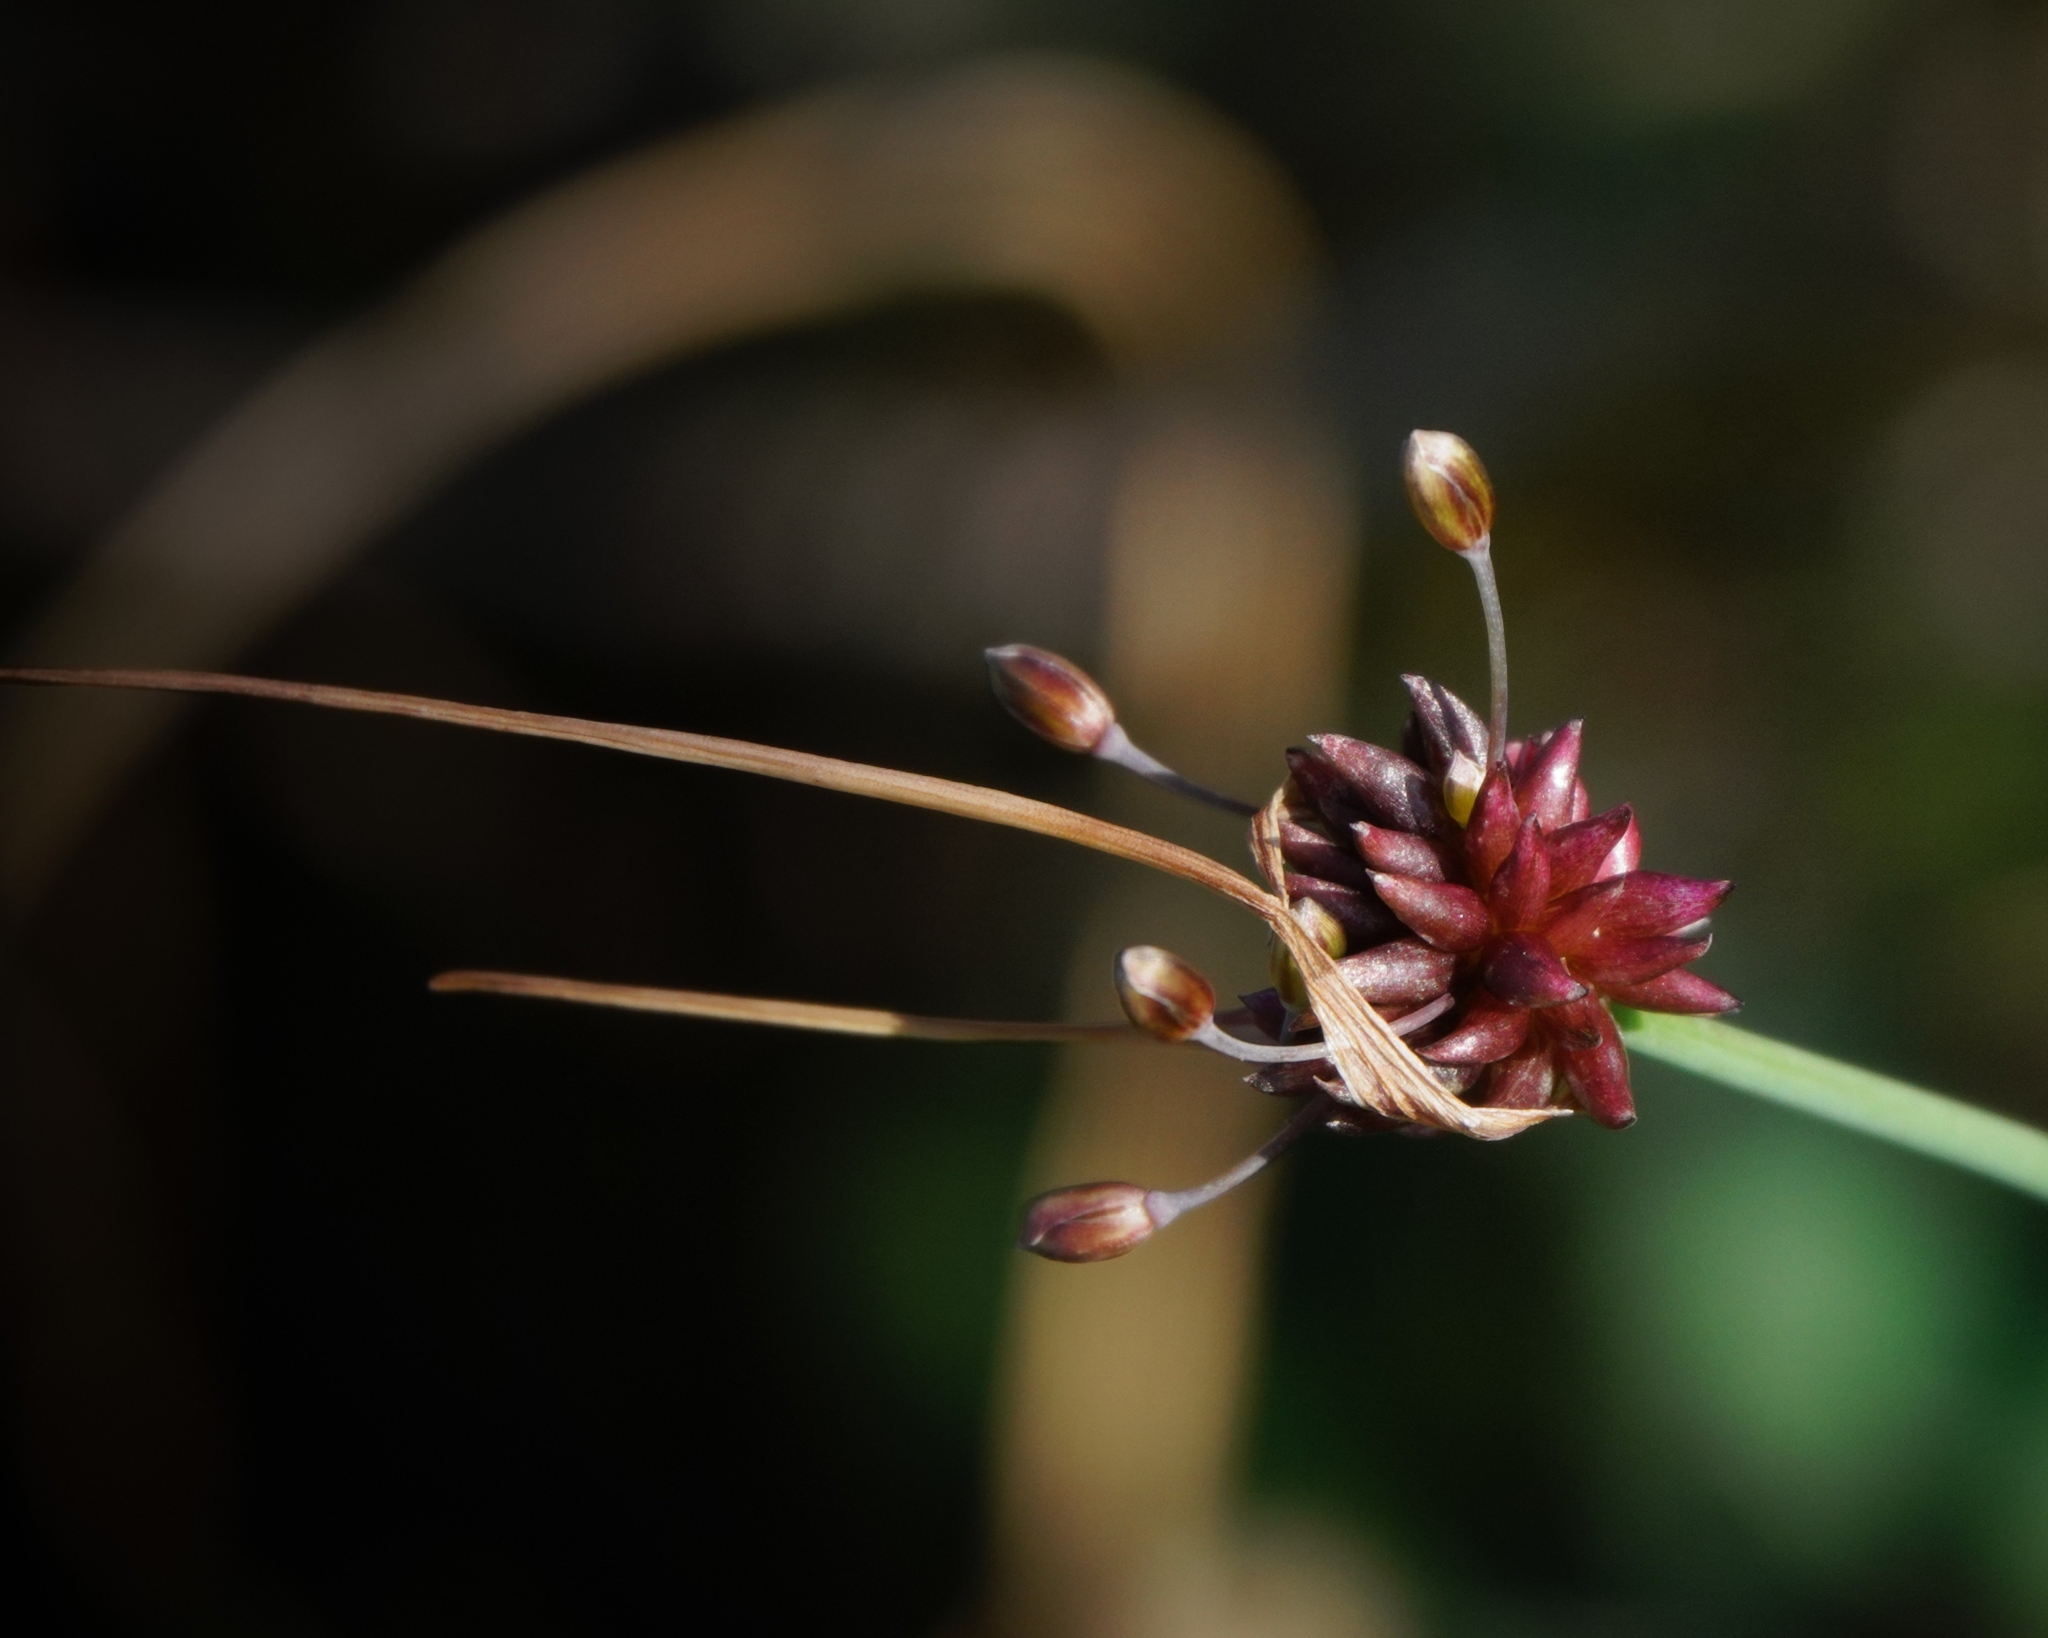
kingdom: Plantae
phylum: Tracheophyta
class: Liliopsida
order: Asparagales
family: Amaryllidaceae
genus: Allium
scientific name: Allium oleraceum
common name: Field garlic
